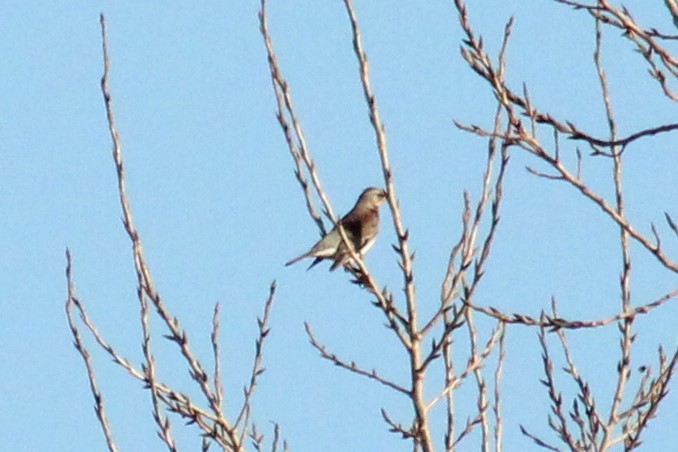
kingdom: Animalia
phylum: Chordata
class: Aves
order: Passeriformes
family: Turdidae
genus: Turdus
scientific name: Turdus pilaris
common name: Fieldfare
